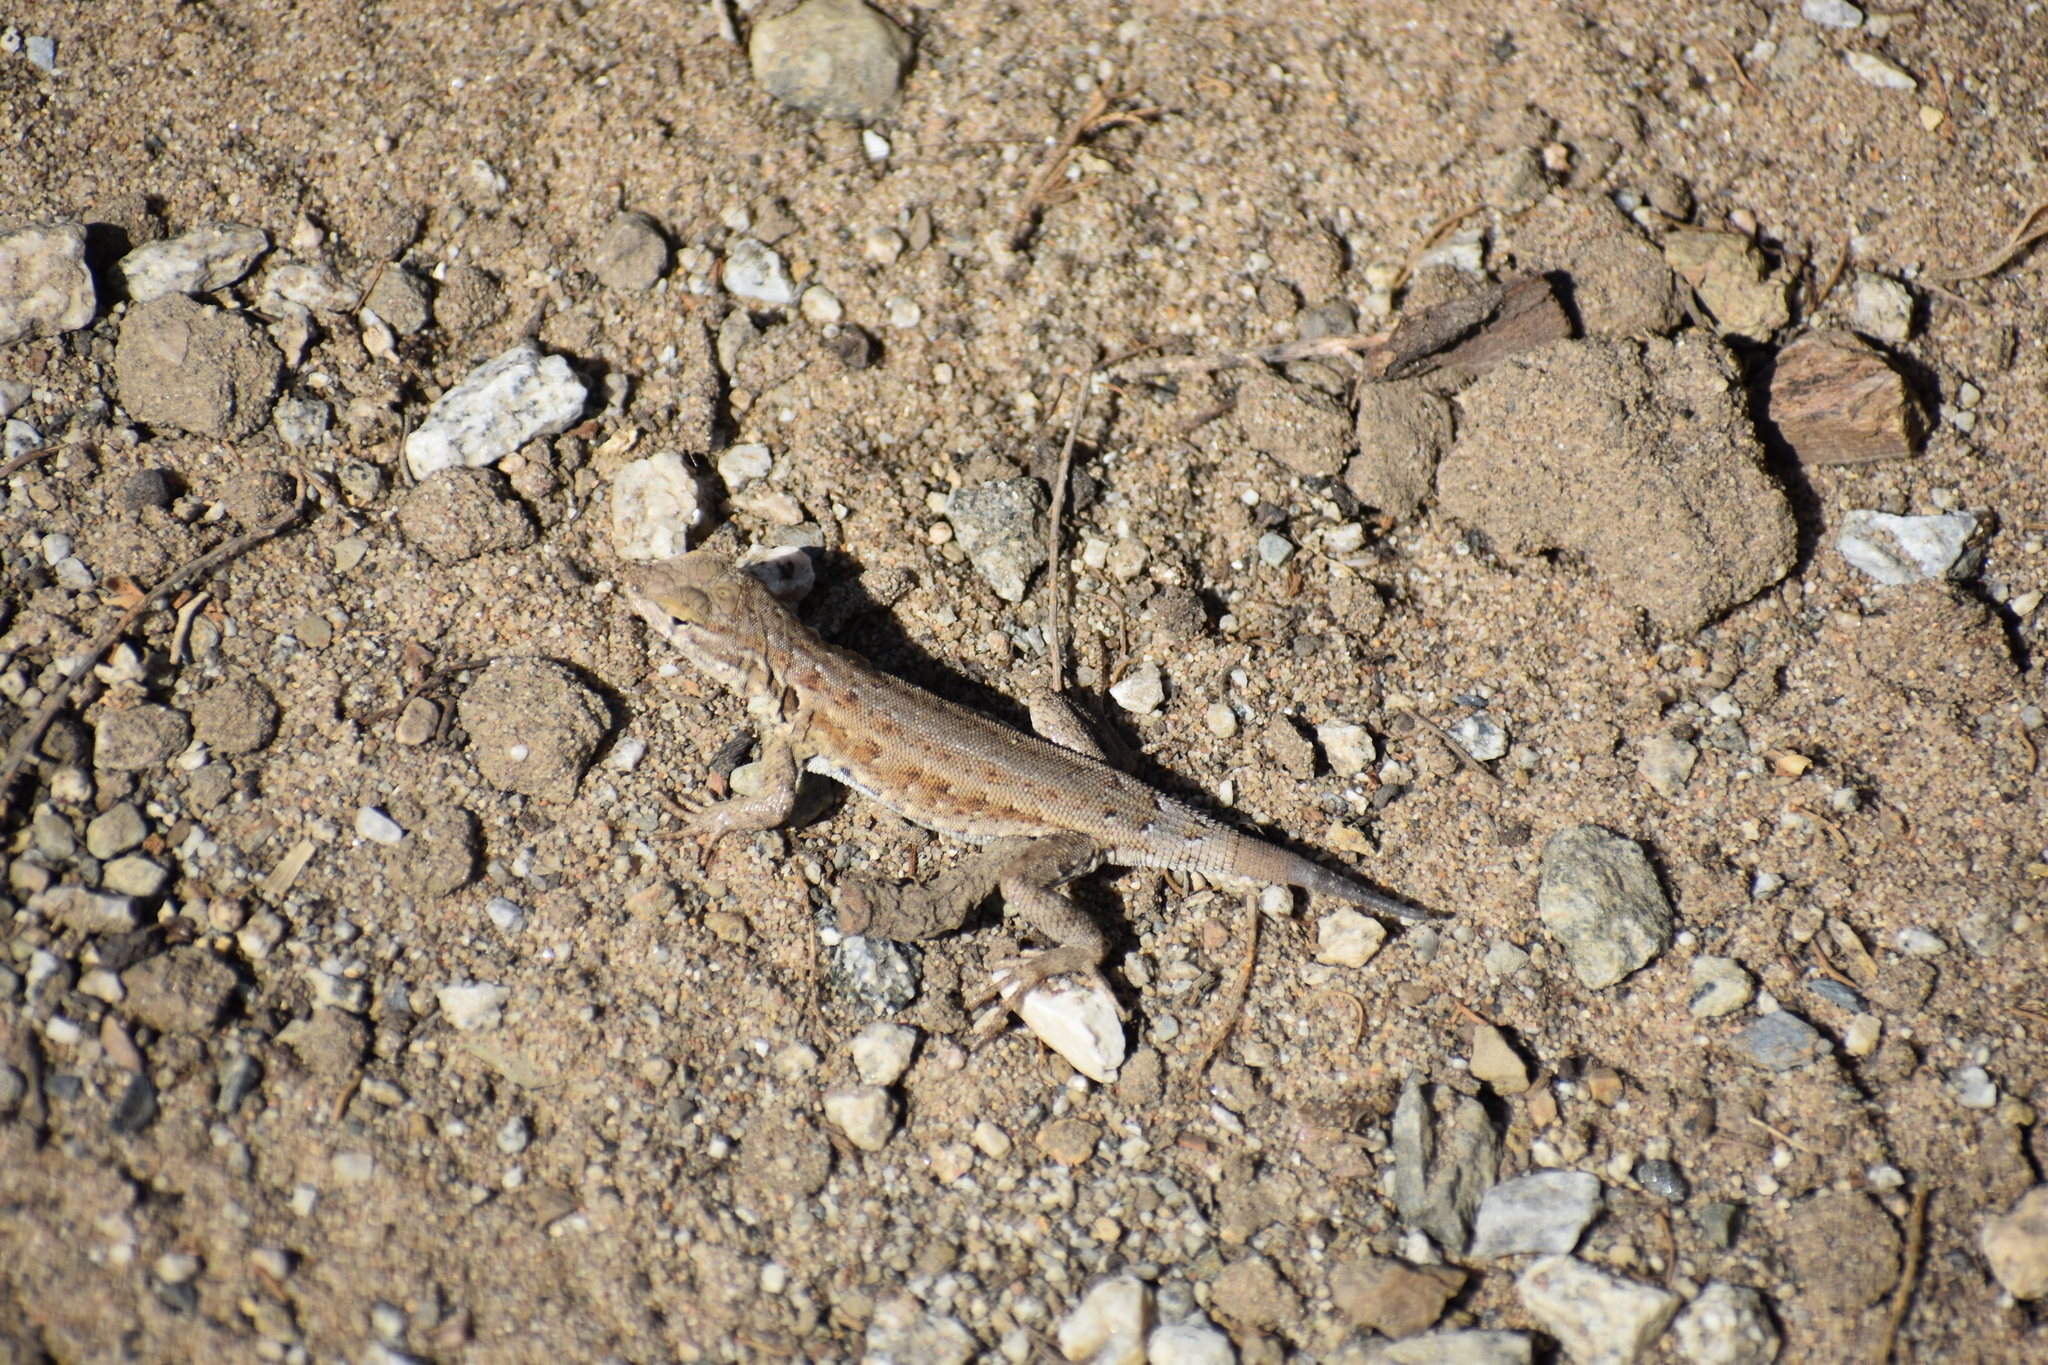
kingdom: Animalia
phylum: Chordata
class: Squamata
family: Phrynosomatidae
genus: Uta
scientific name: Uta stansburiana
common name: Side-blotched lizard
